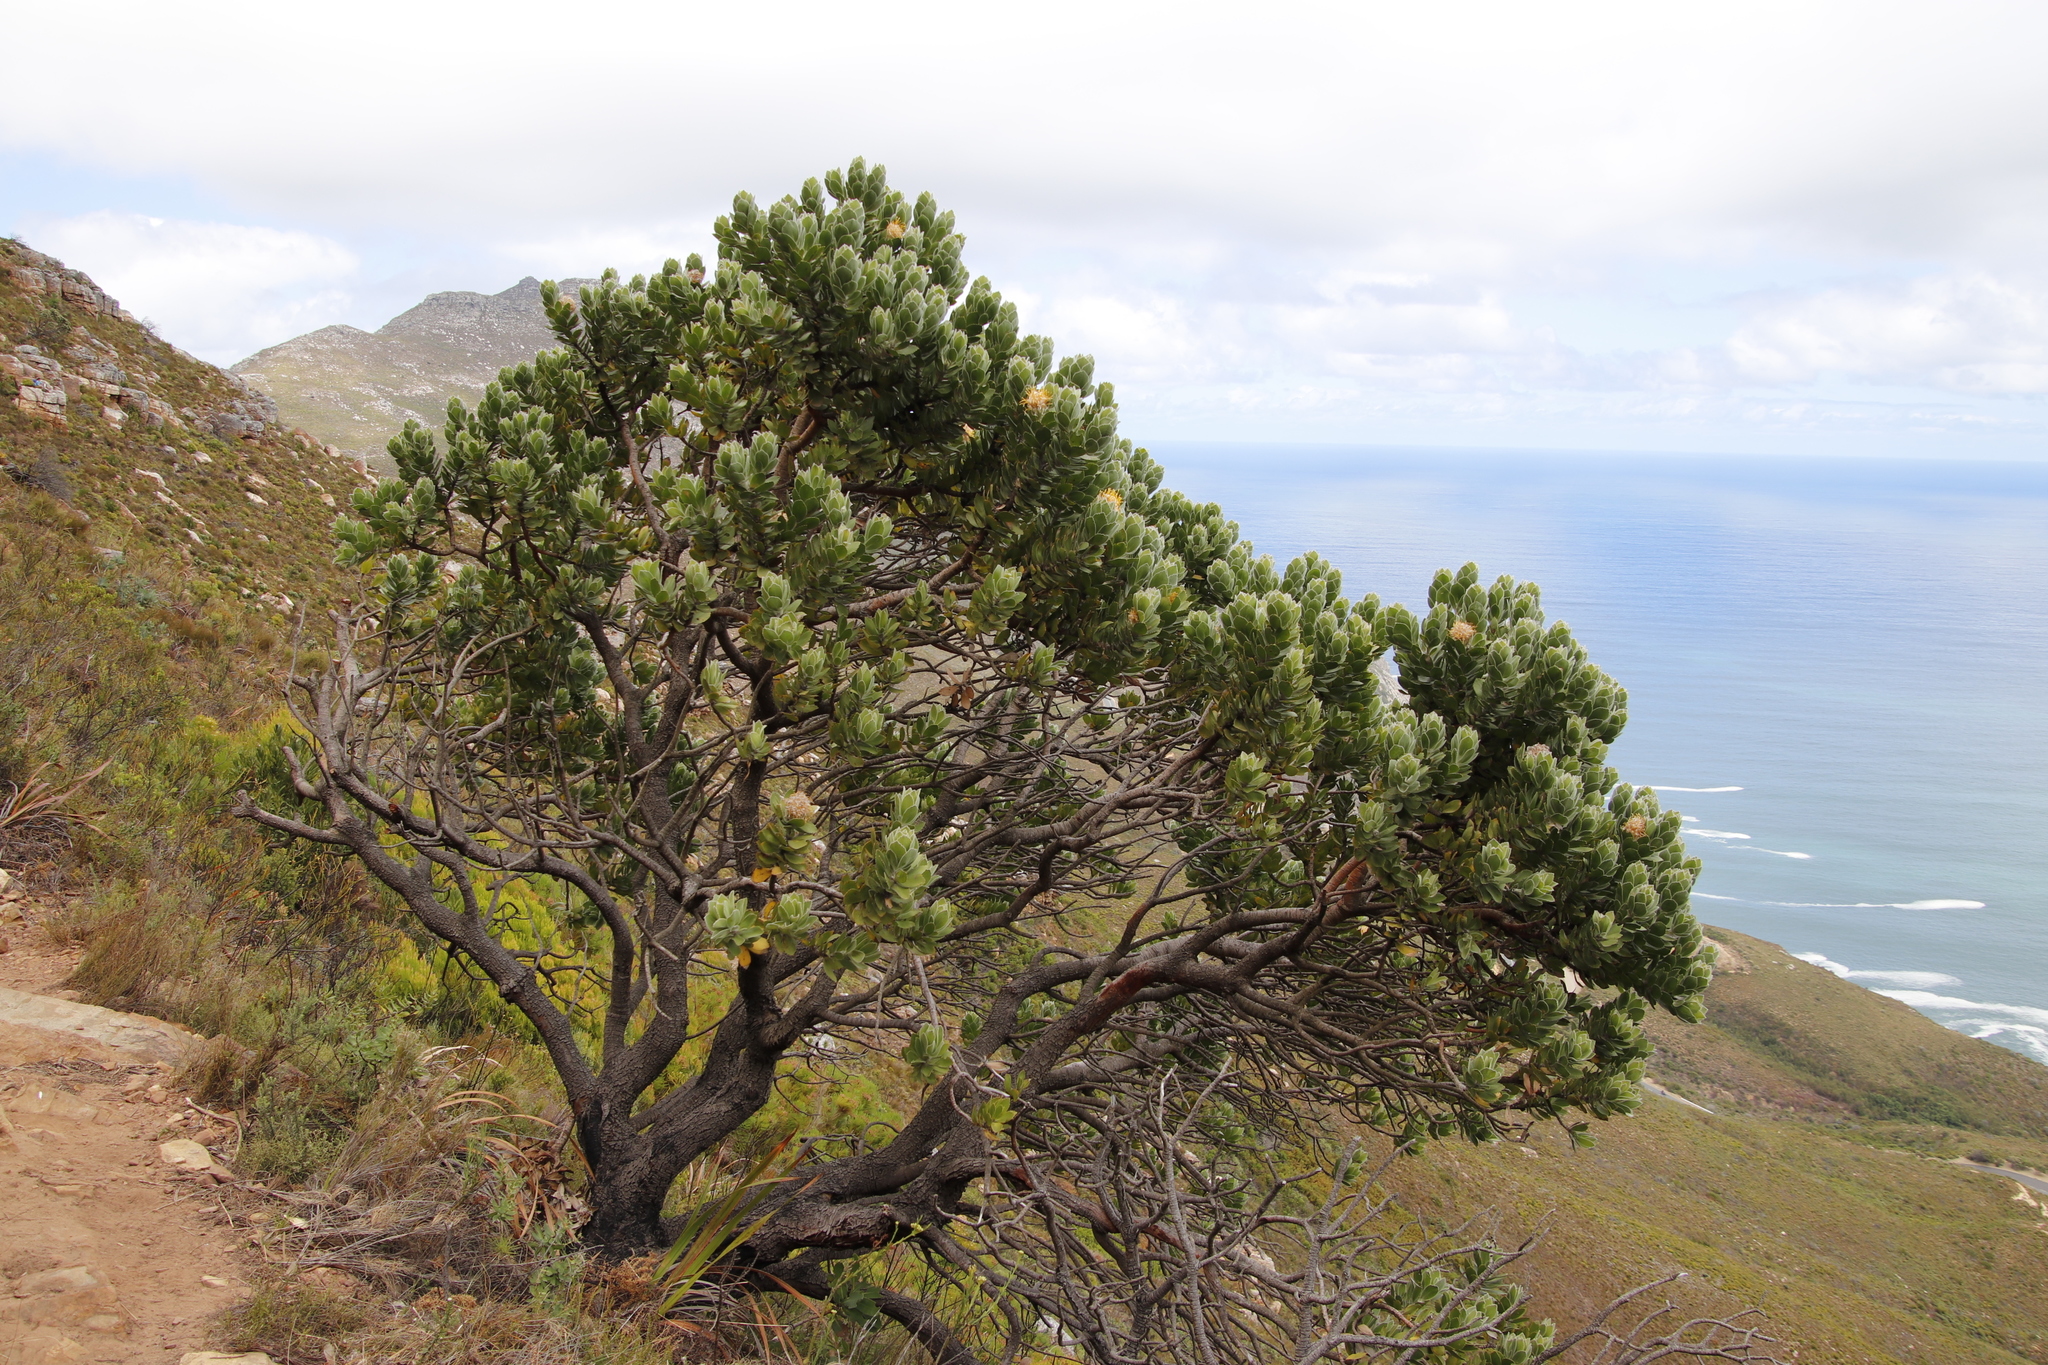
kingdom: Plantae
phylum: Tracheophyta
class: Magnoliopsida
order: Proteales
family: Proteaceae
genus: Leucospermum
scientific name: Leucospermum conocarpodendron
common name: Tree pincushion
